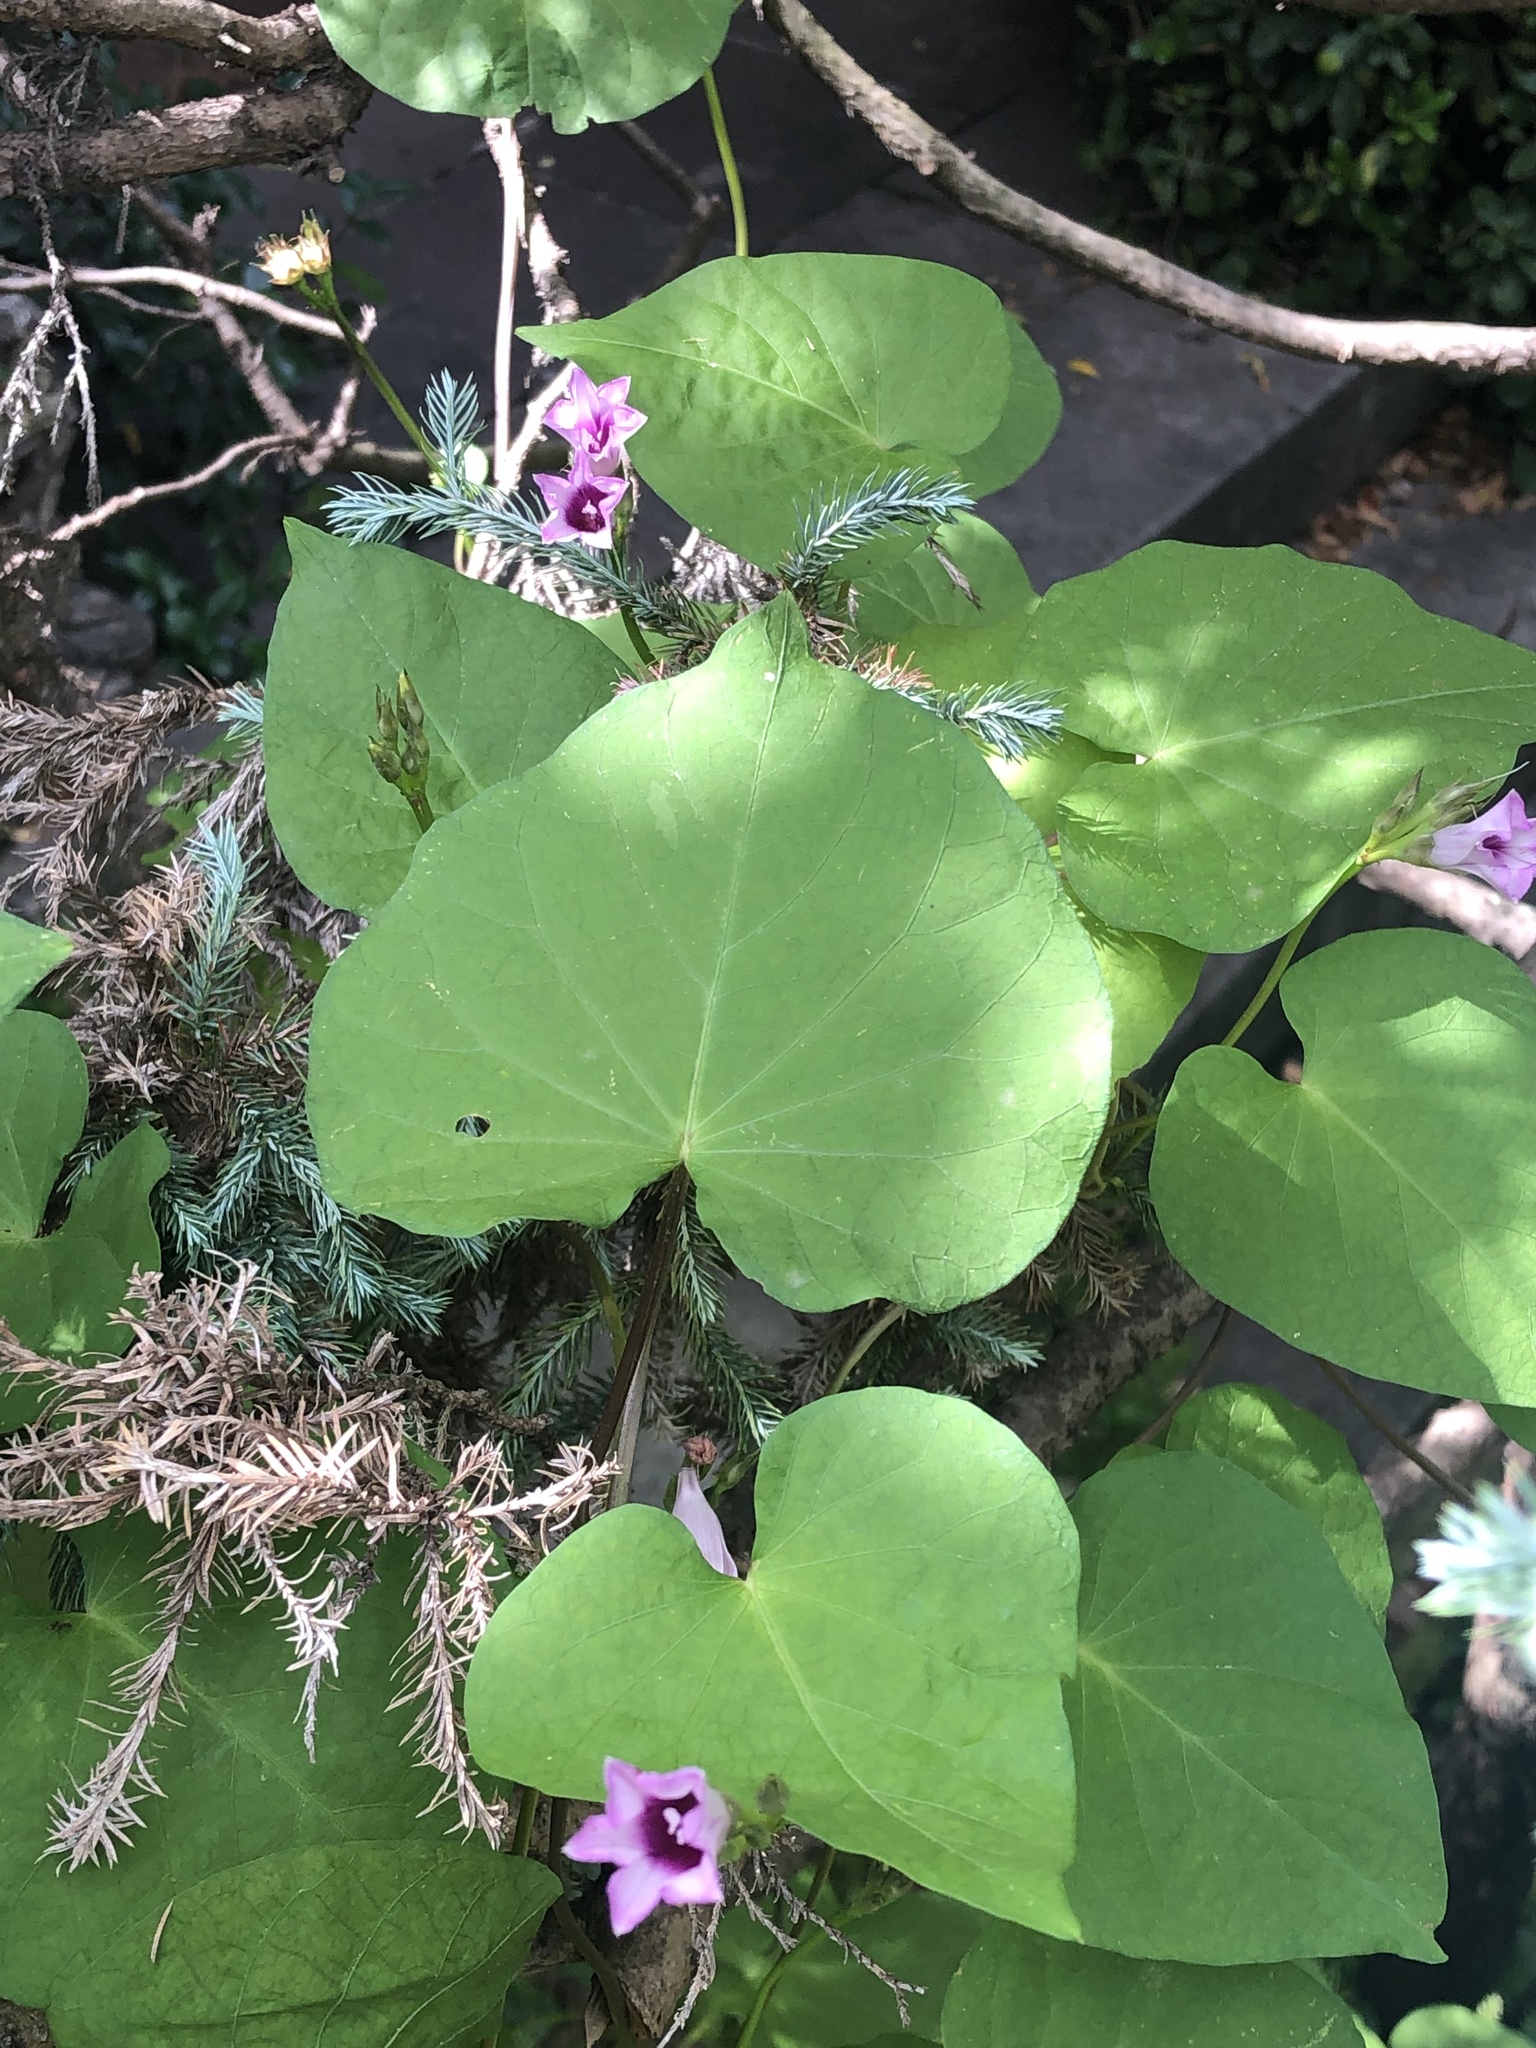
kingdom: Plantae
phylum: Tracheophyta
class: Magnoliopsida
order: Solanales
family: Convolvulaceae
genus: Ipomoea
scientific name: Ipomoea grandifolia
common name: Aiea morning glory
